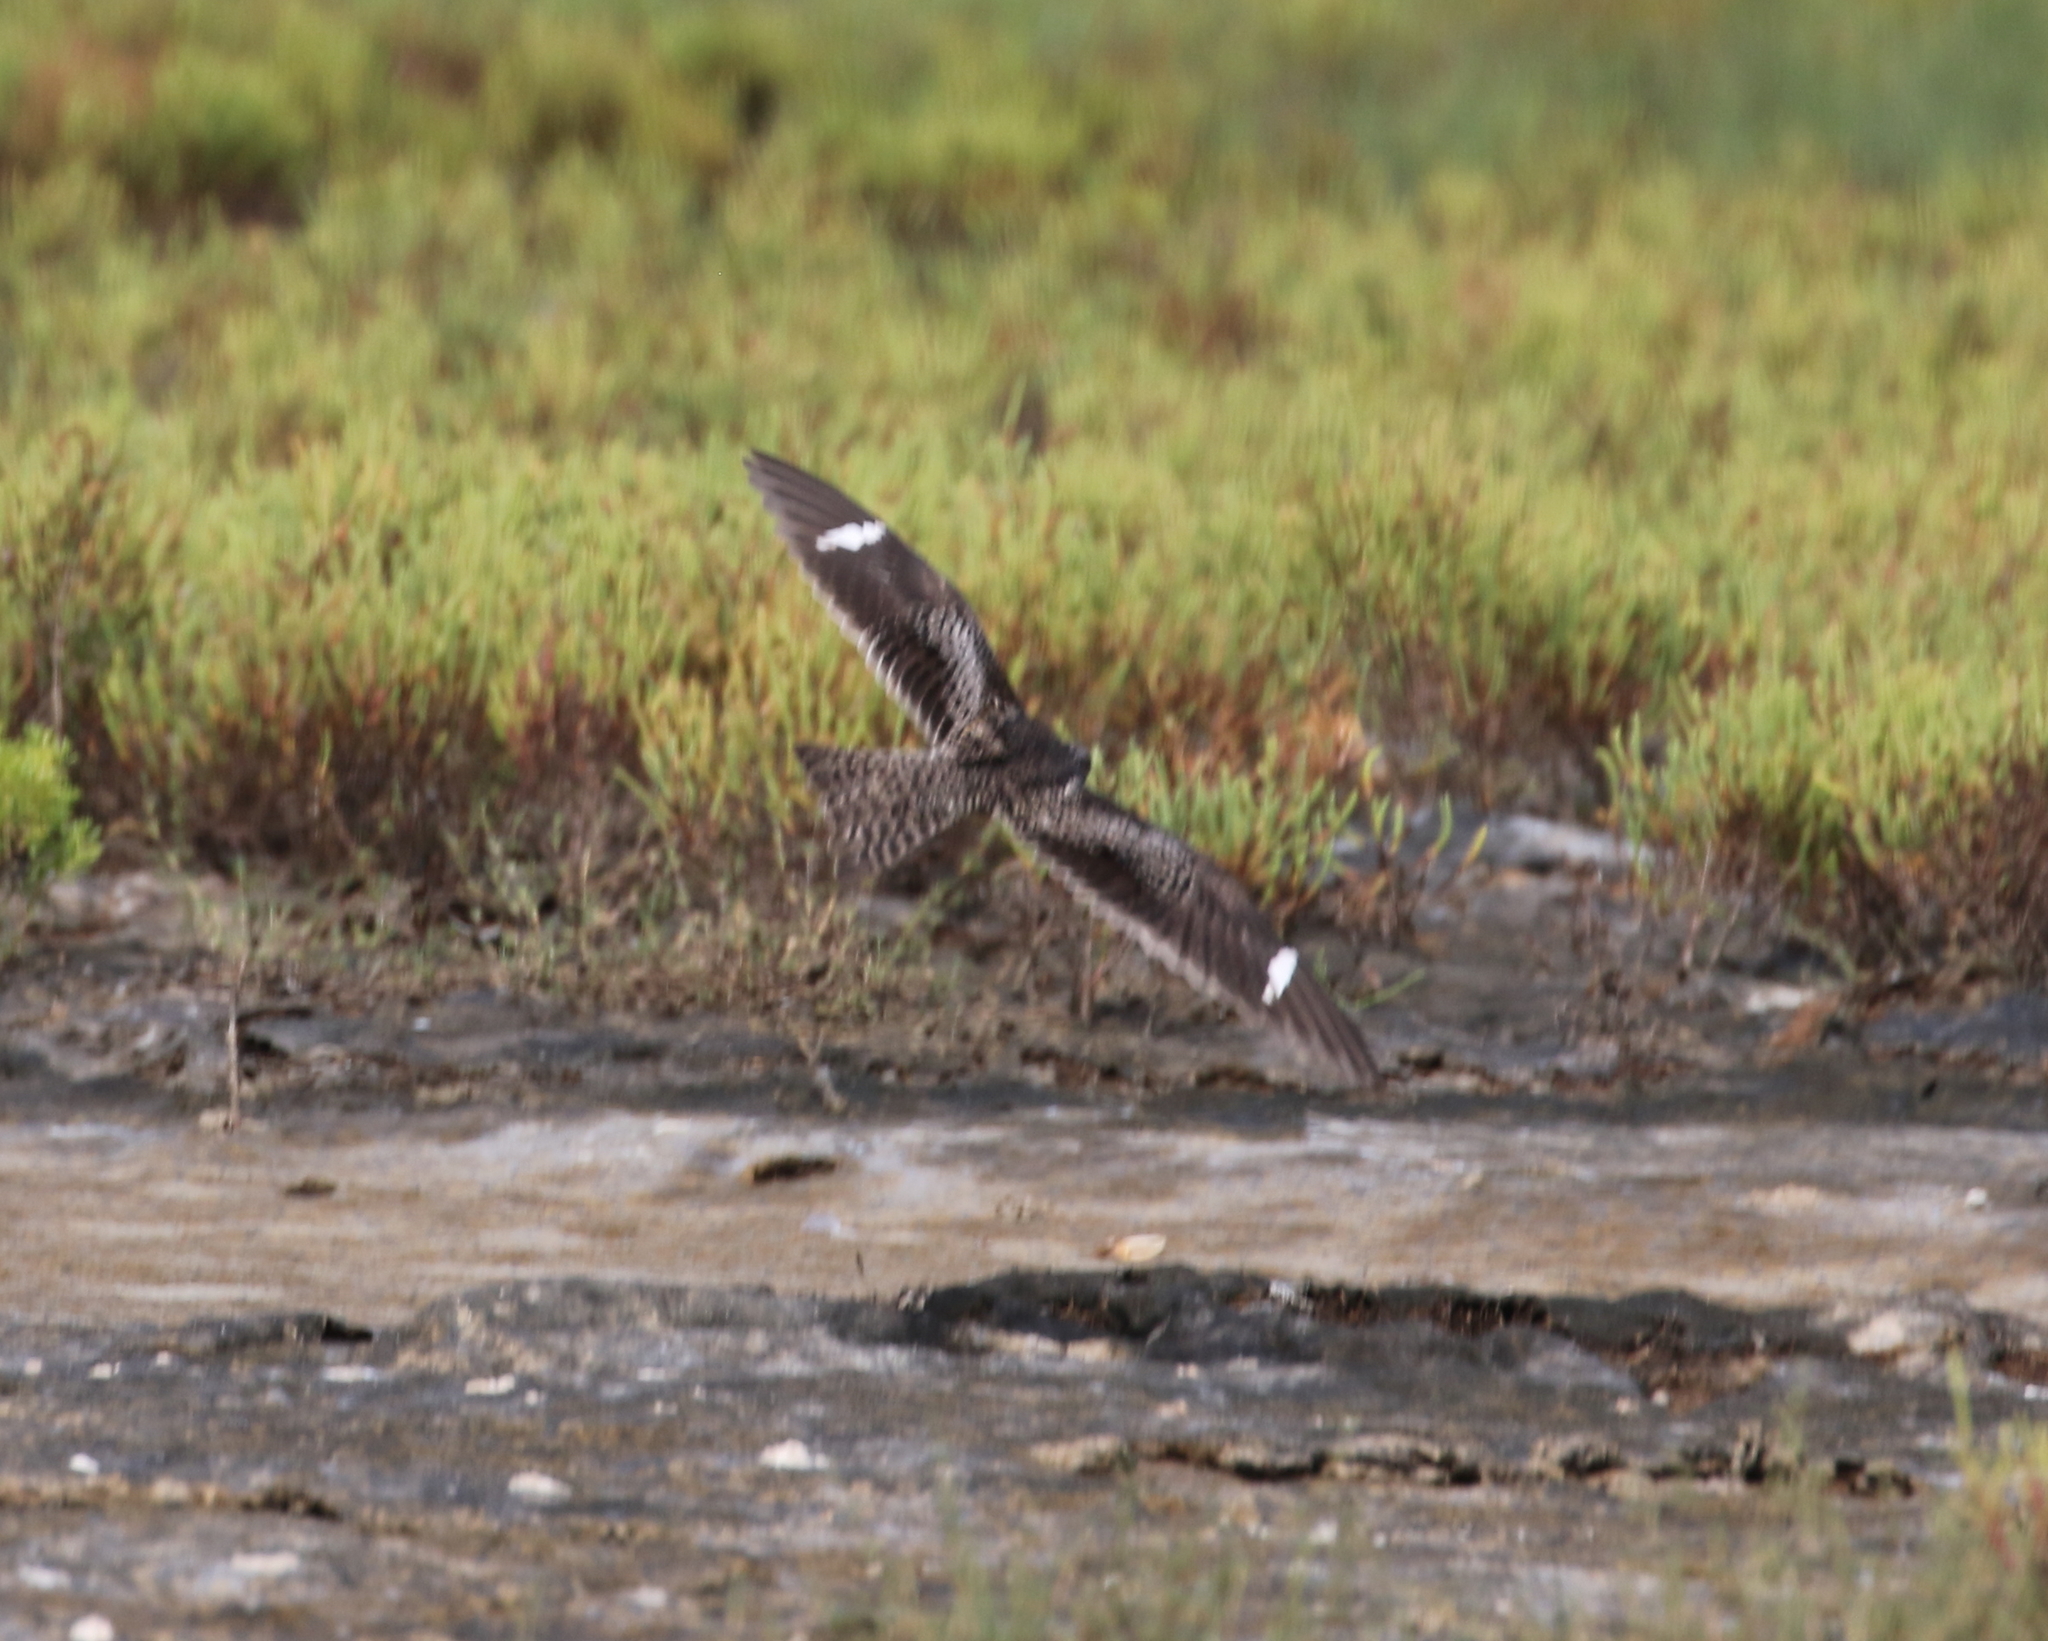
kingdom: Animalia
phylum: Chordata
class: Aves
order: Caprimulgiformes
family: Caprimulgidae
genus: Chordeiles
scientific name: Chordeiles minor
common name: Common nighthawk
